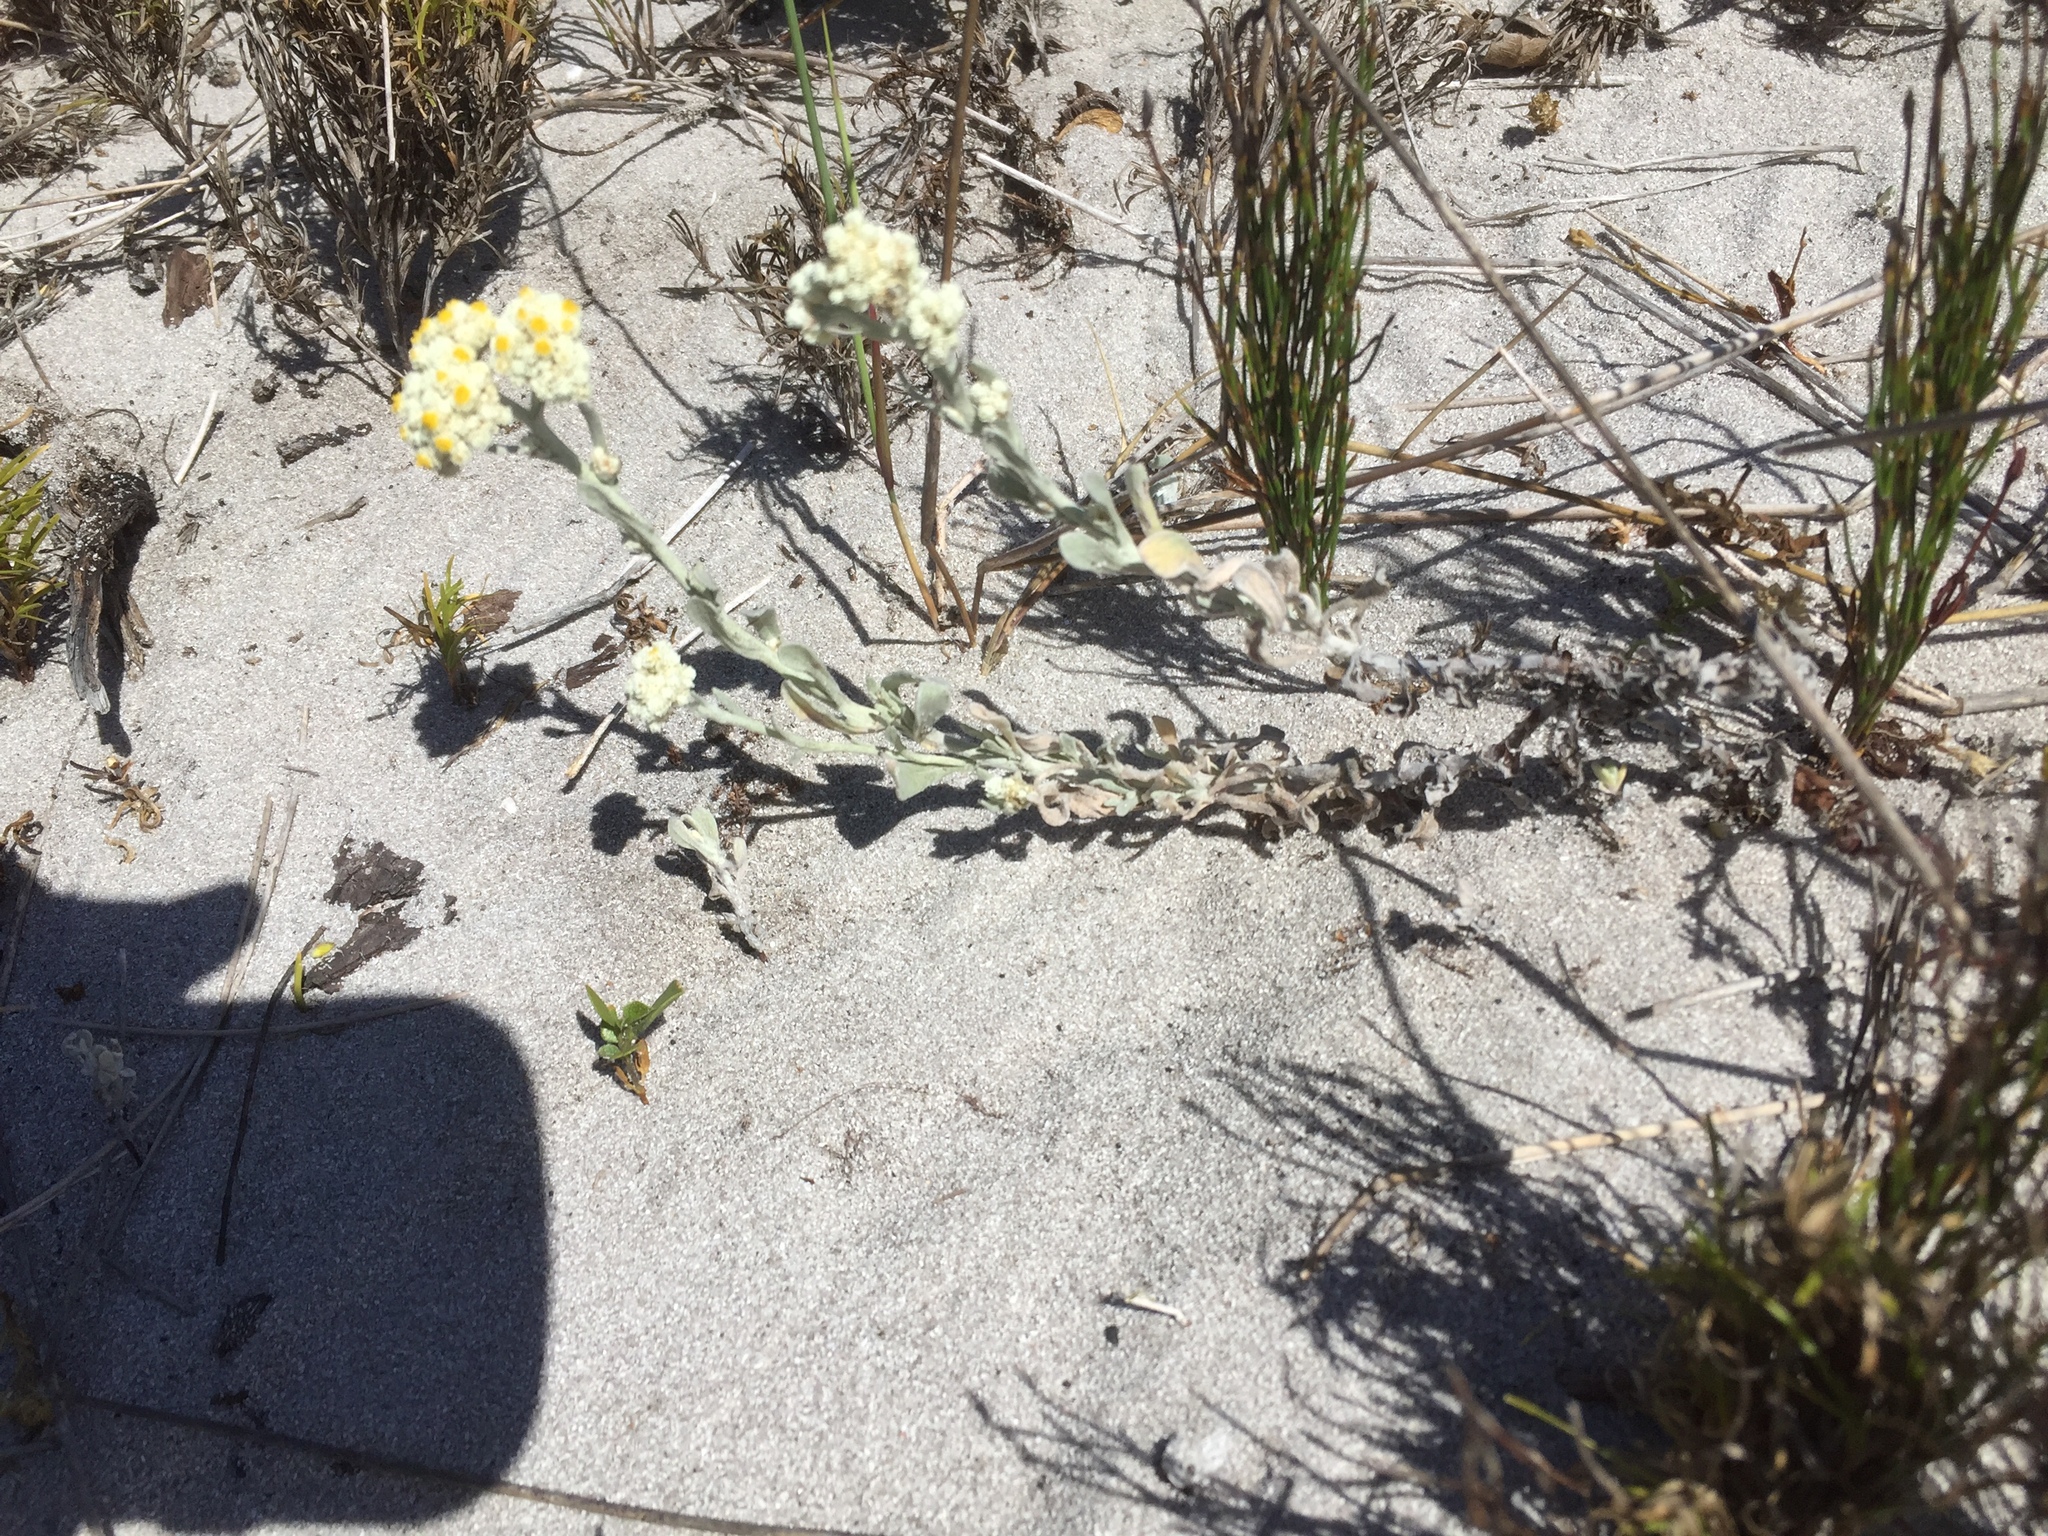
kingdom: Plantae
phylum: Tracheophyta
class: Magnoliopsida
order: Asterales
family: Asteraceae
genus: Helichrysum
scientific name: Helichrysum crispum
